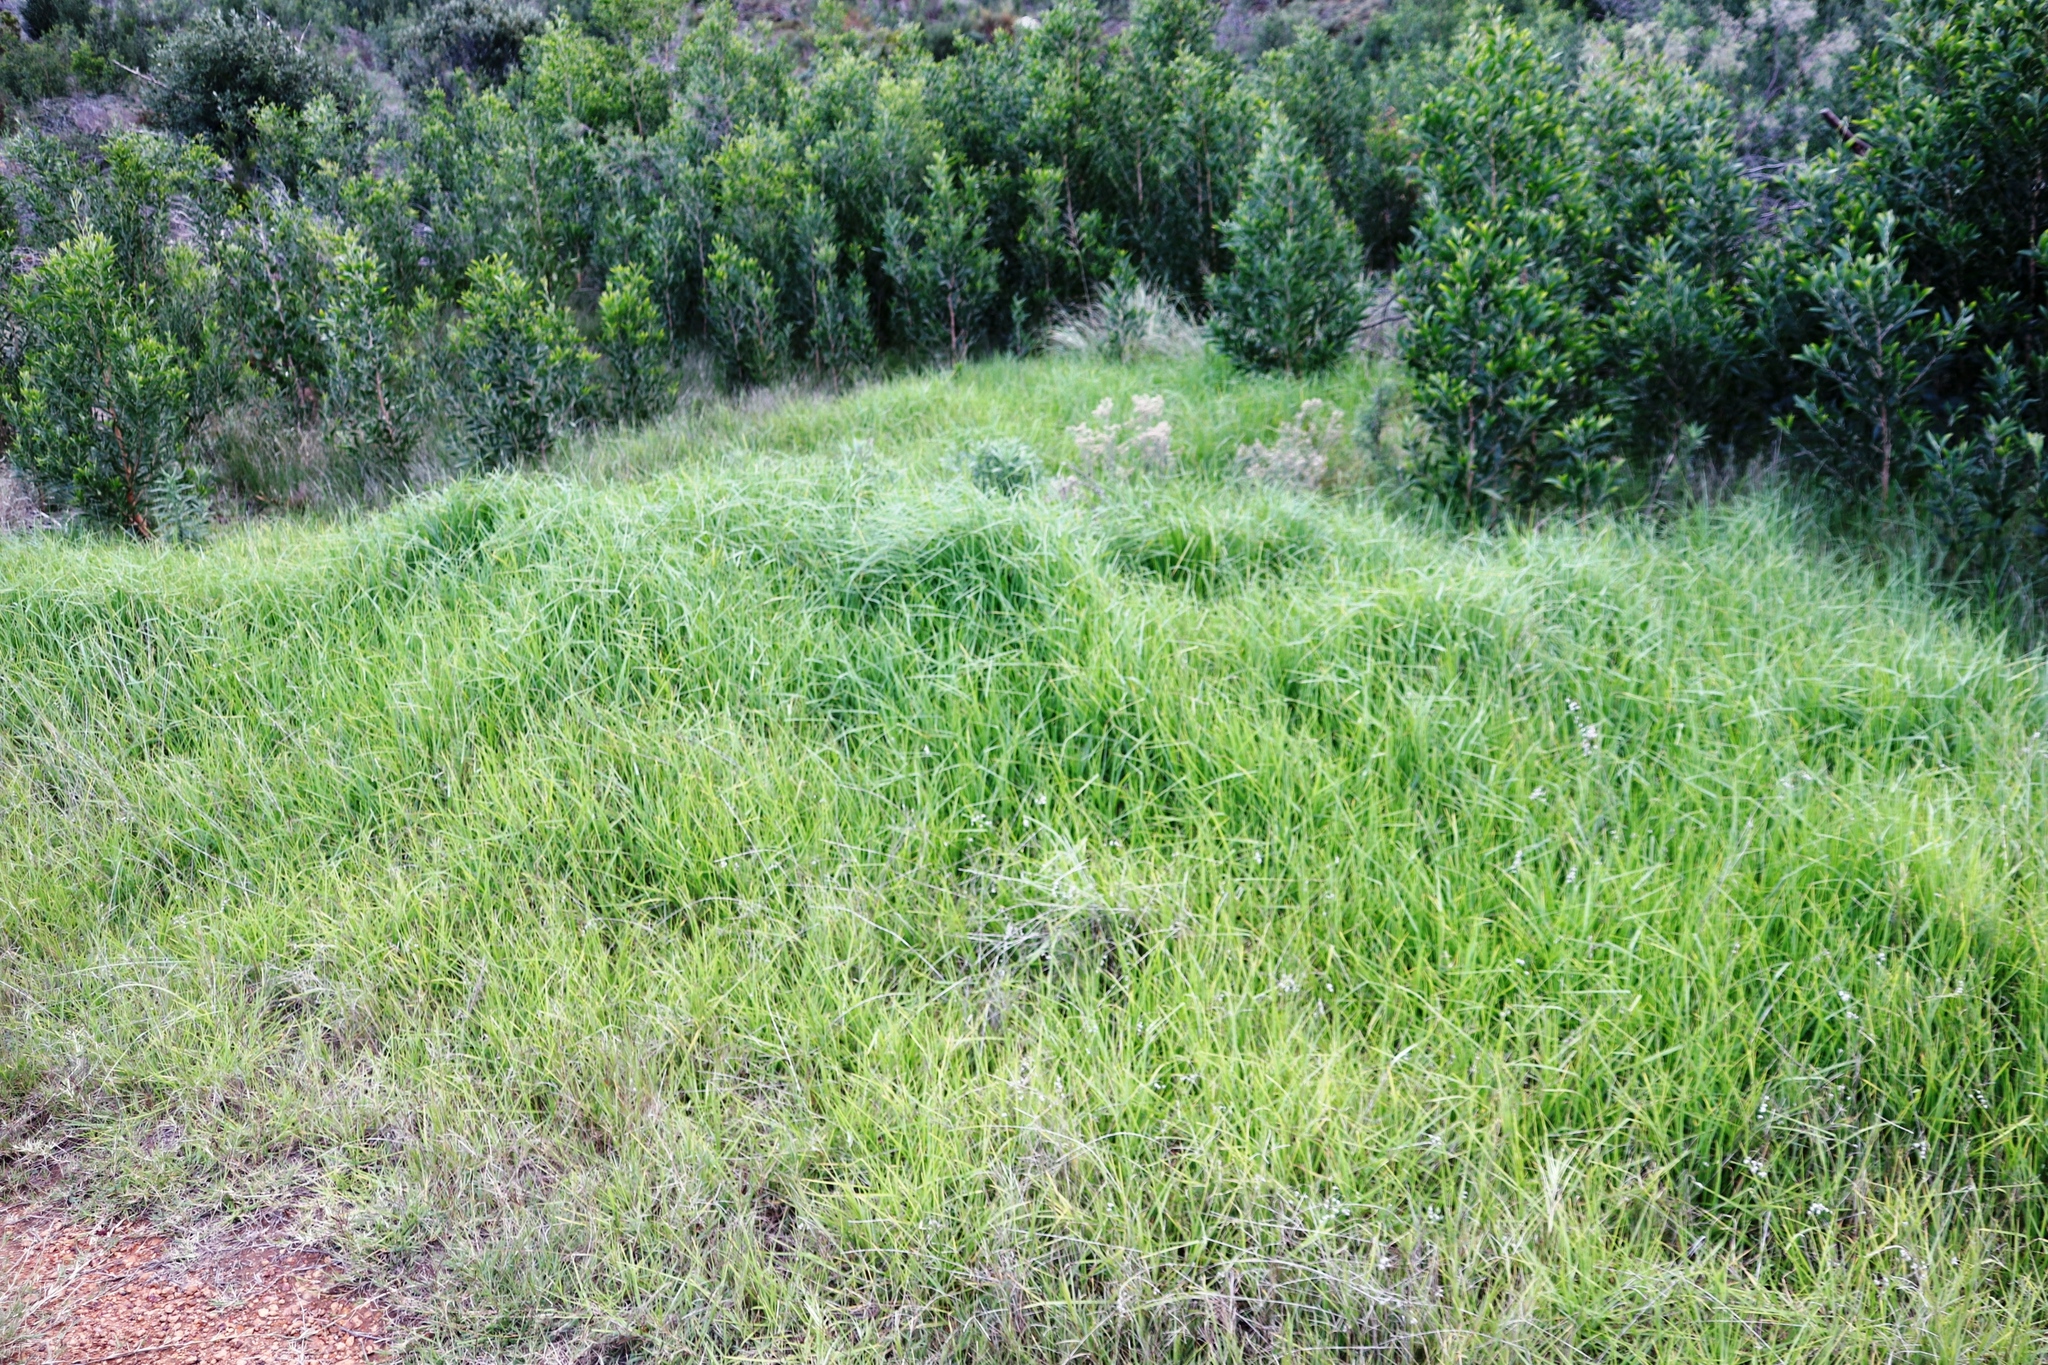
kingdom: Plantae
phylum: Tracheophyta
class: Liliopsida
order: Poales
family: Poaceae
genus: Cenchrus
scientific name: Cenchrus clandestinus
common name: Kikuyugrass
